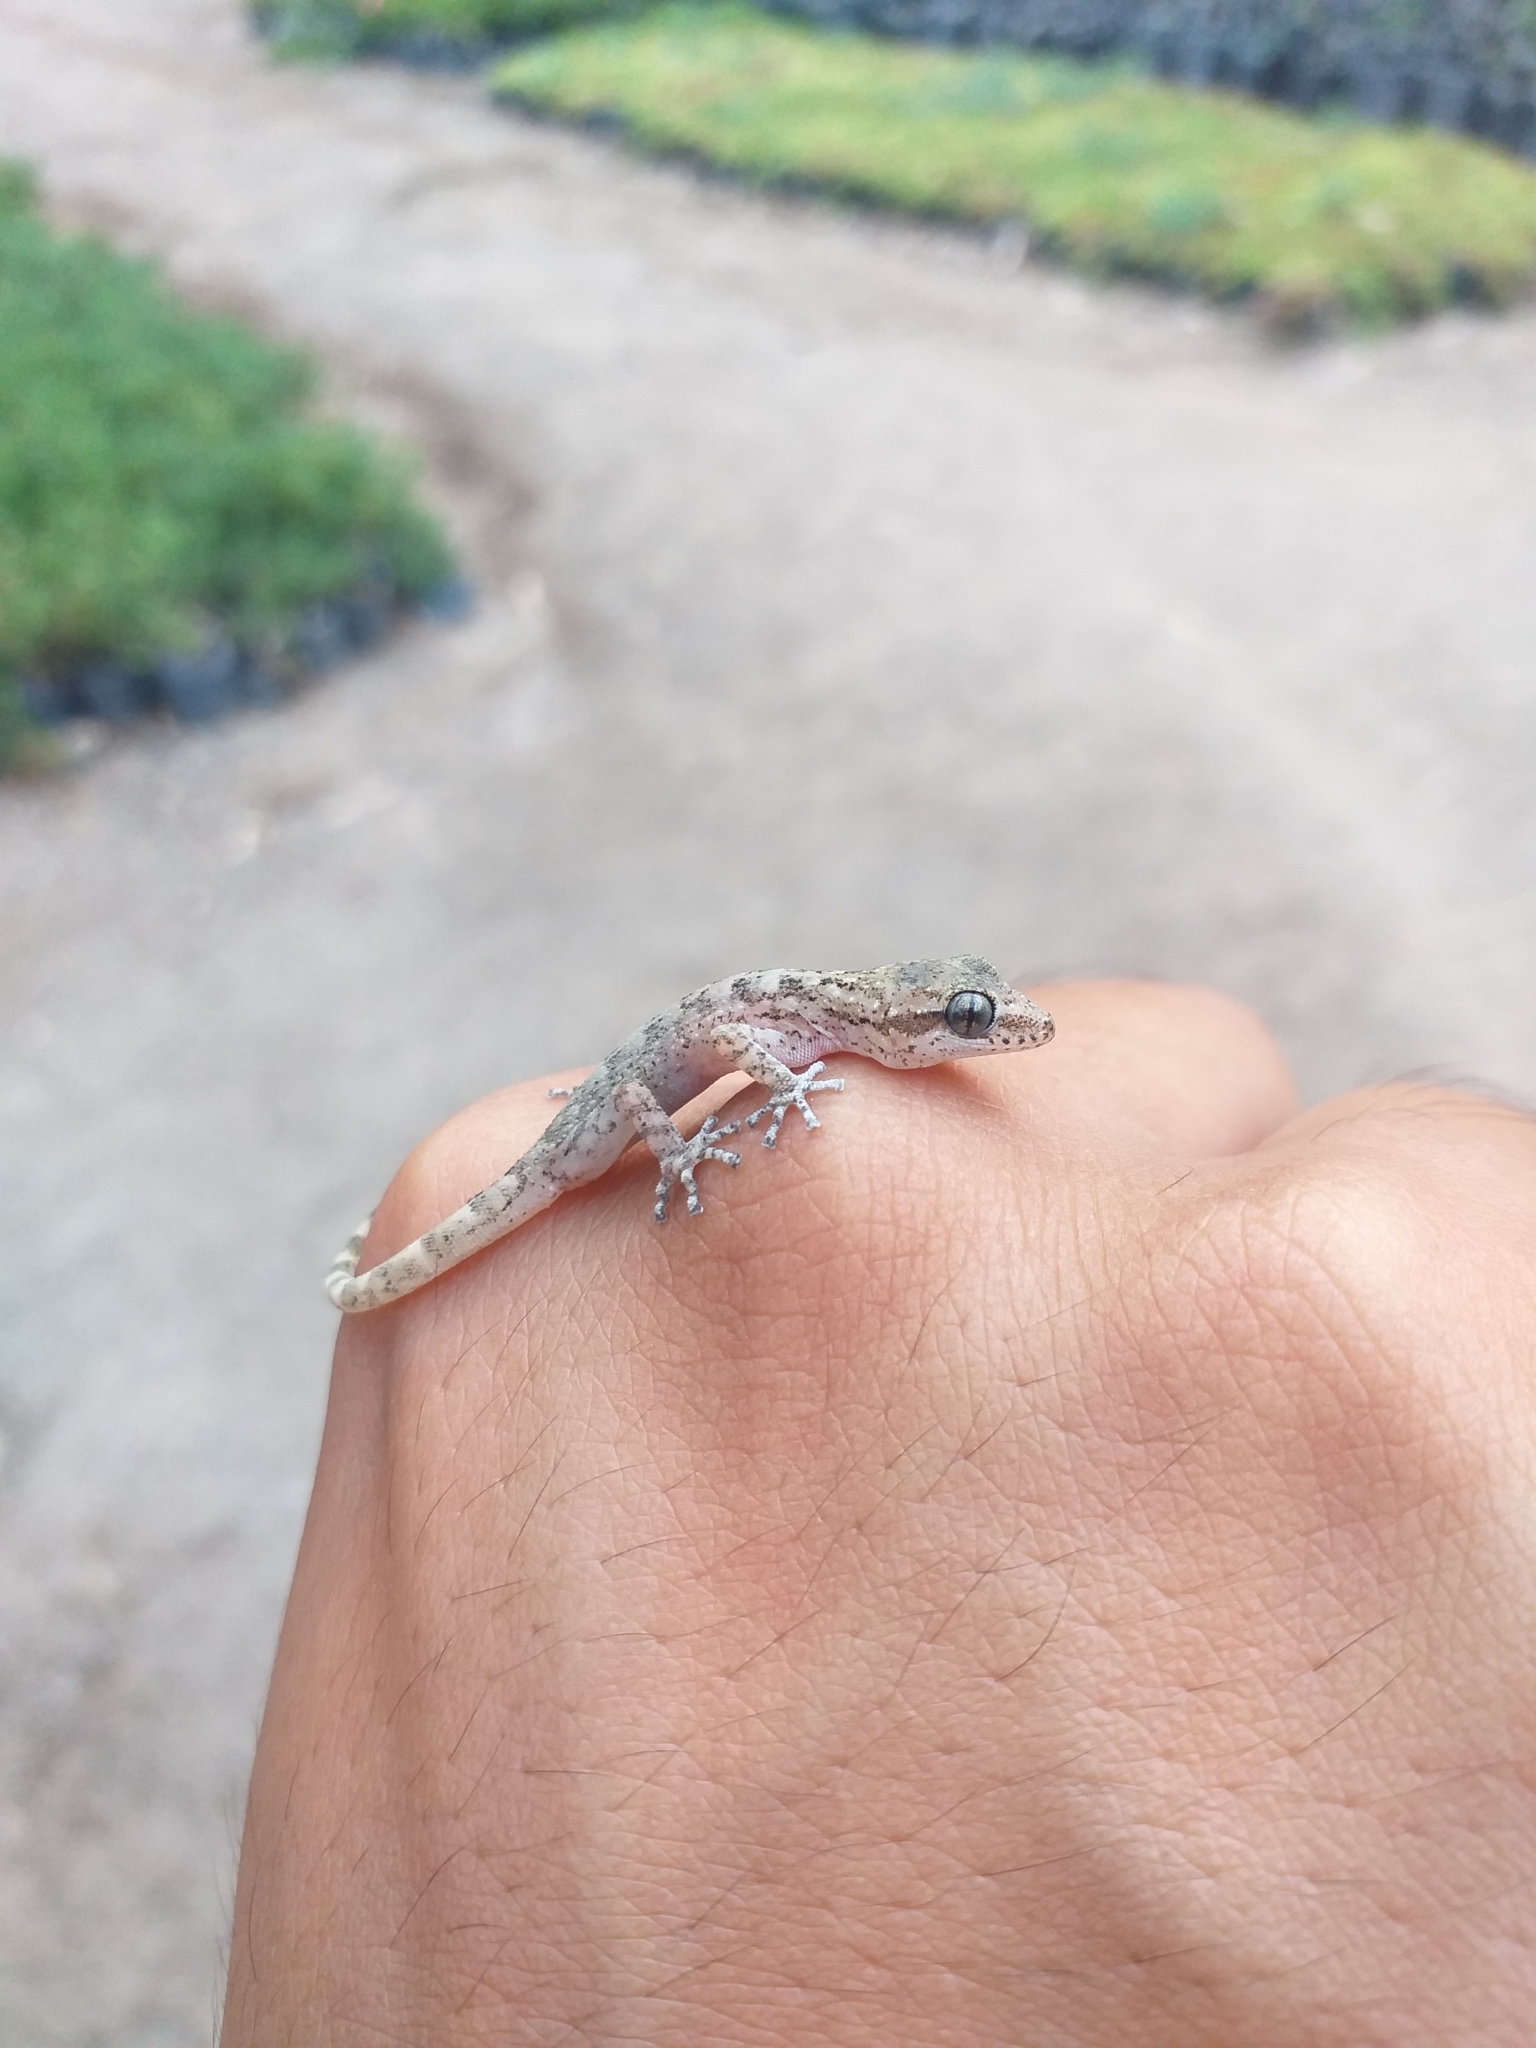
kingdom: Animalia
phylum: Chordata
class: Squamata
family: Phyllodactylidae
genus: Phyllodactylus
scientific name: Phyllodactylus lepidopygus
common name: Western leaf-toed gecko
